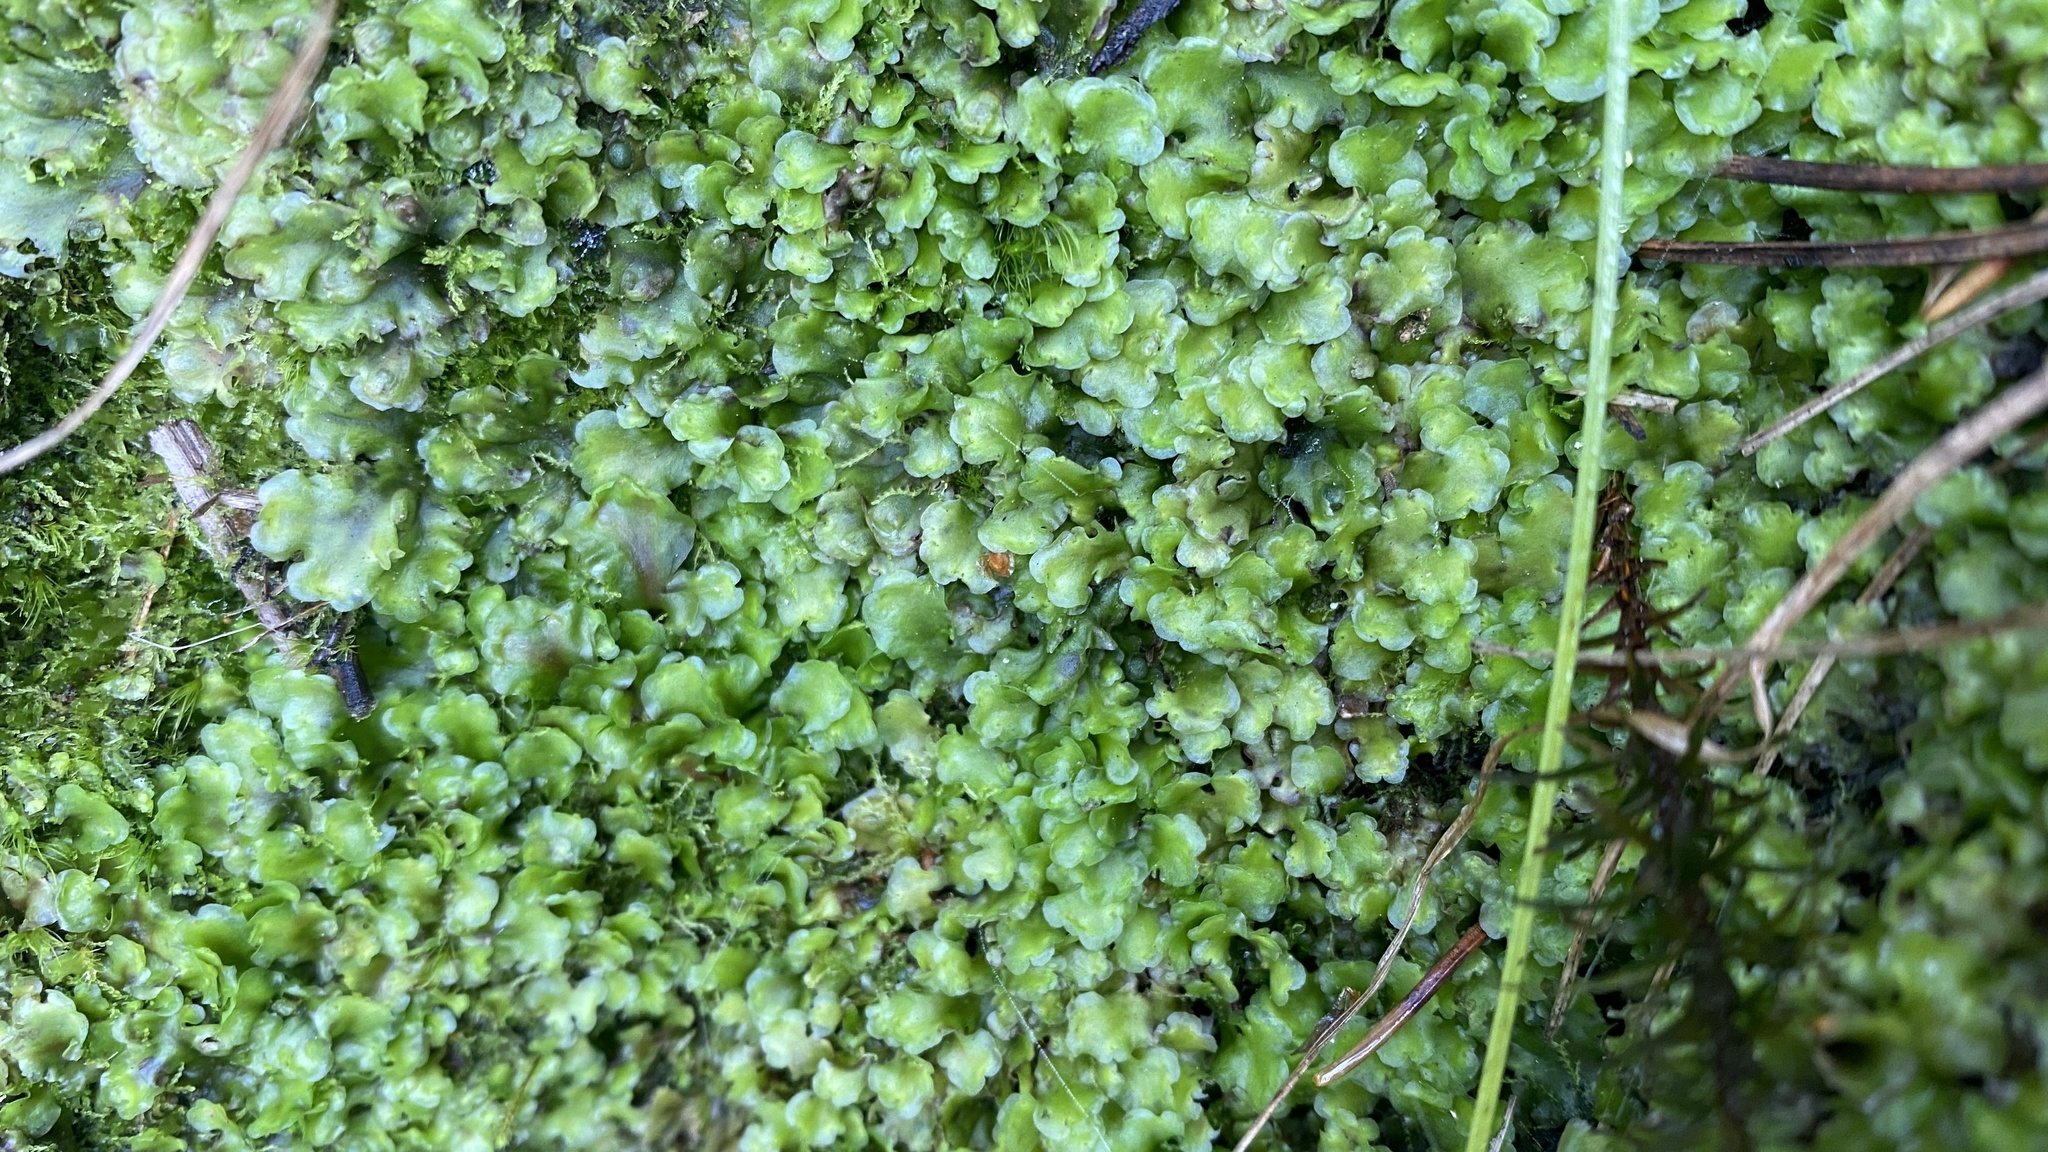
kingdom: Plantae
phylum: Marchantiophyta
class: Jungermanniopsida
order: Pelliales
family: Pelliaceae
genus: Pellia
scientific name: Pellia epiphylla
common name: Common pellia
